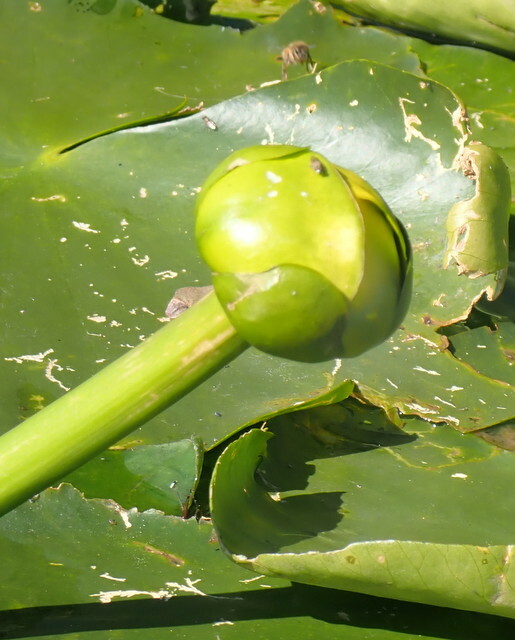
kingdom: Plantae
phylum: Tracheophyta
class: Magnoliopsida
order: Nymphaeales
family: Nymphaeaceae
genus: Nuphar
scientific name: Nuphar advena
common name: Spatter-dock
